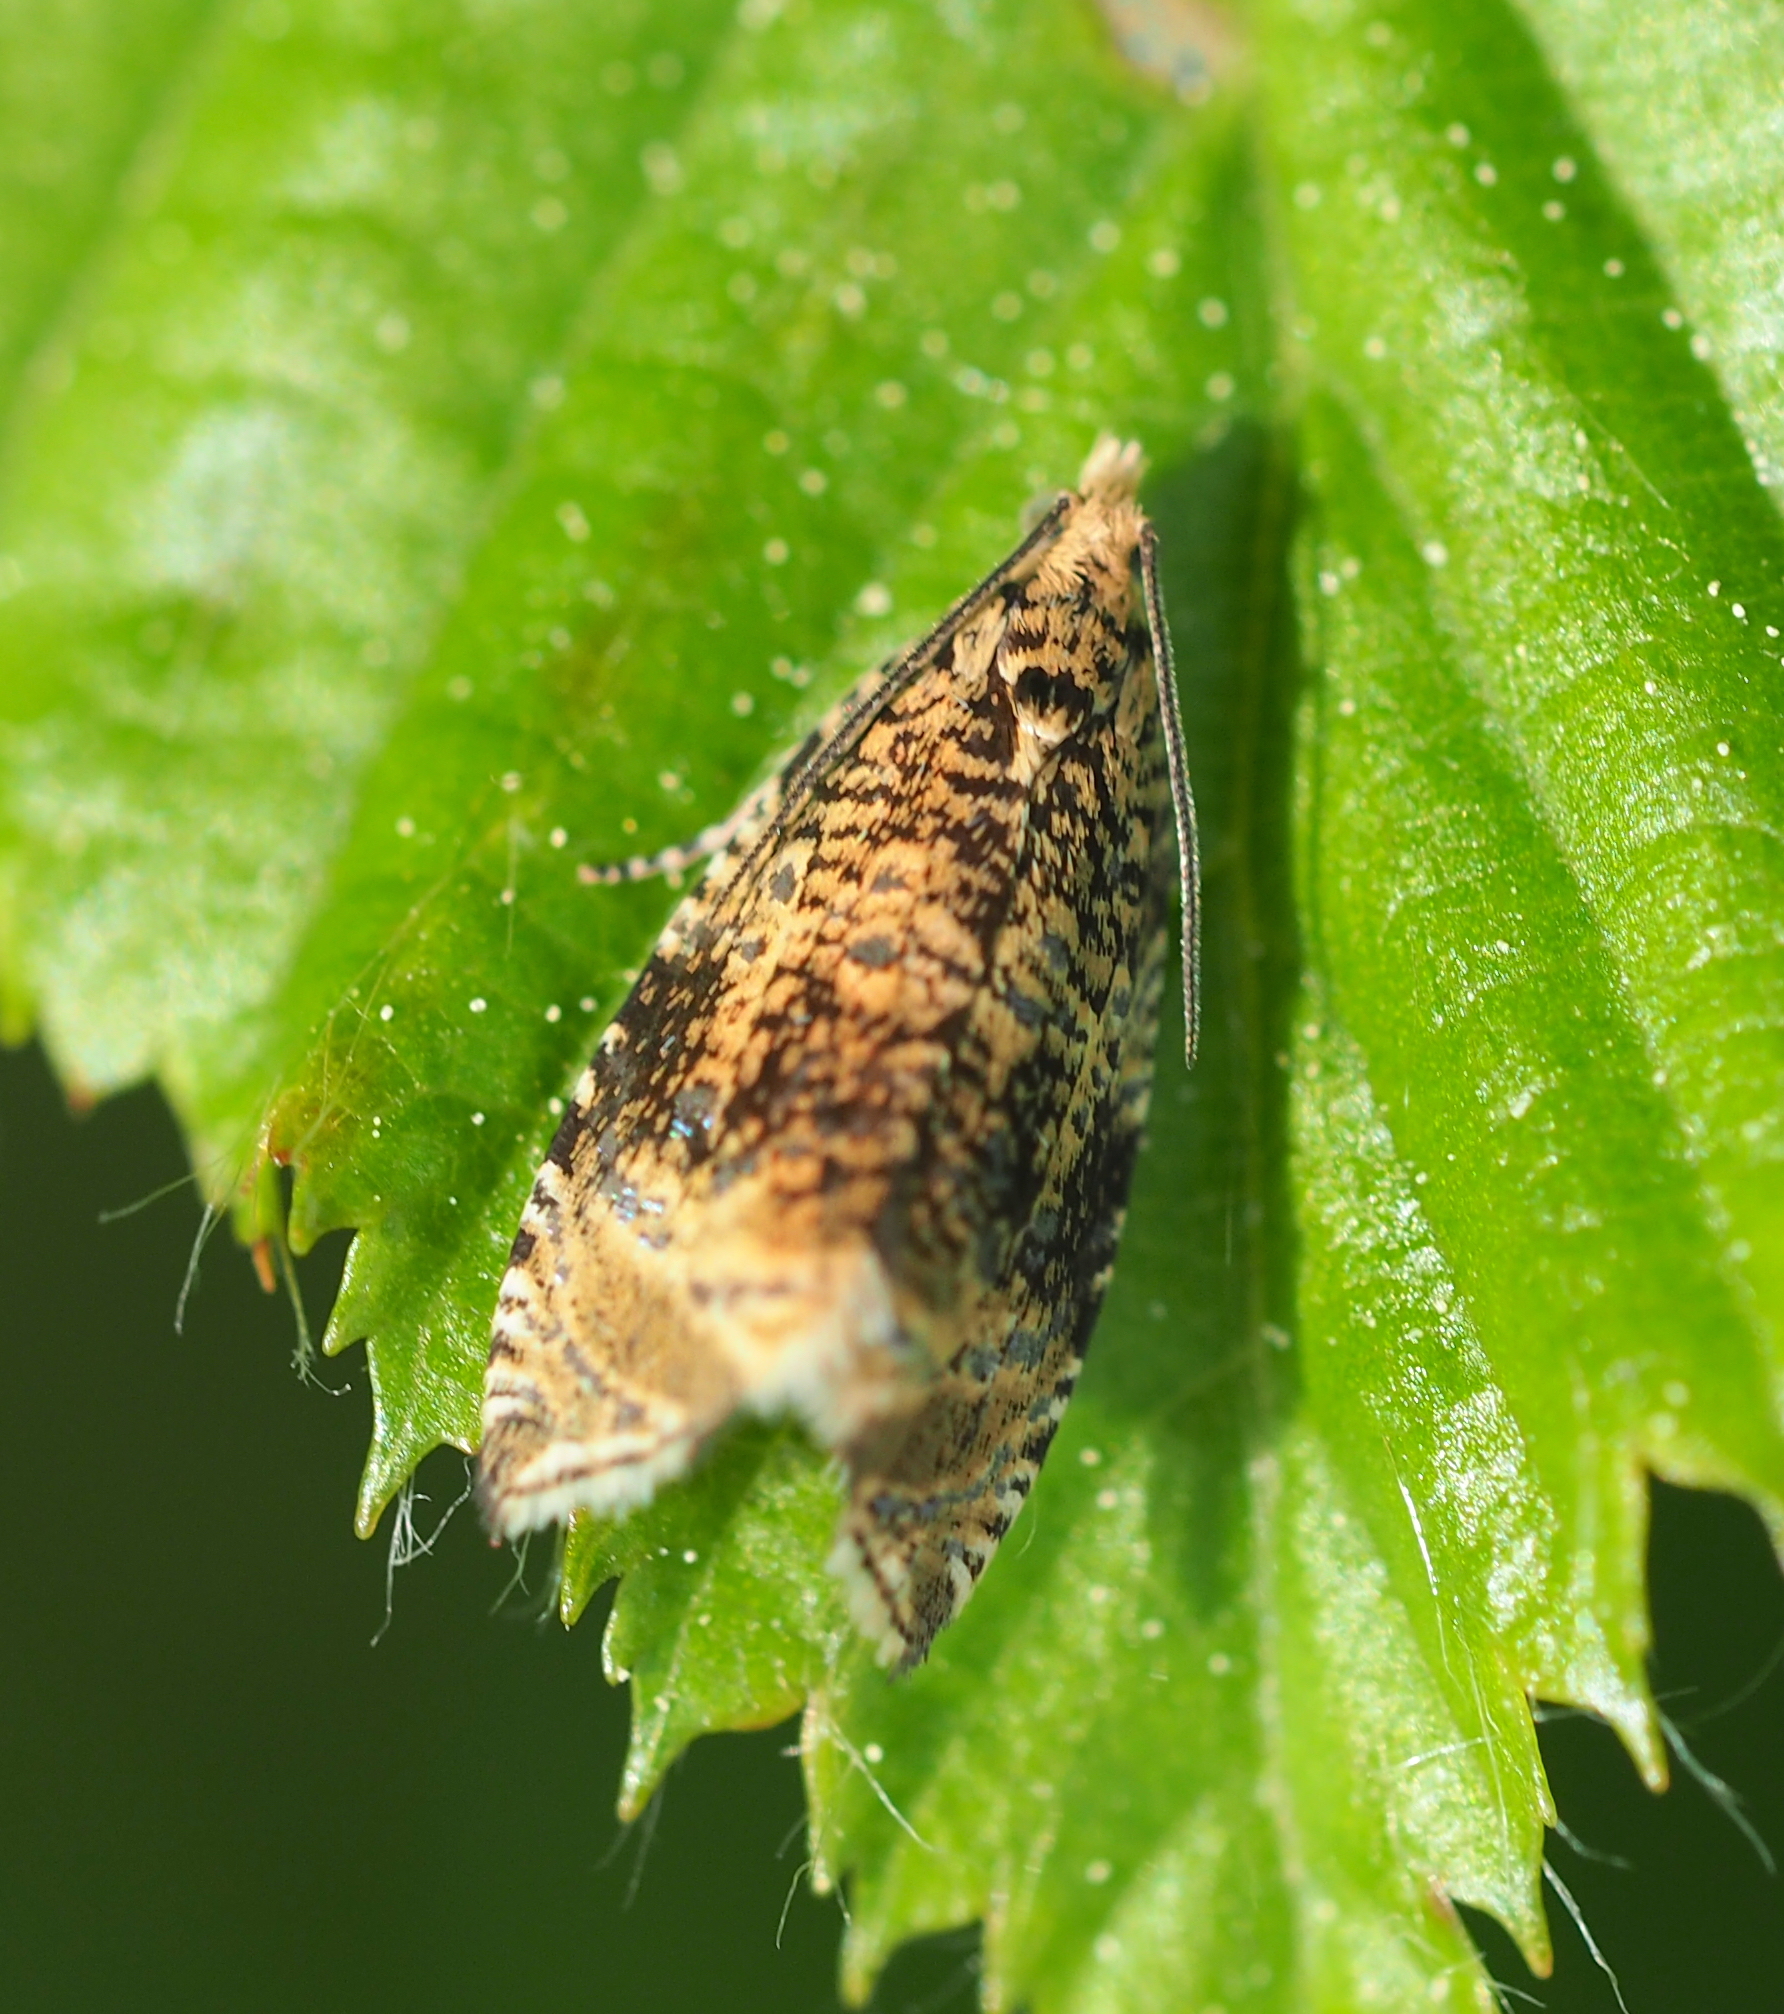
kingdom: Animalia
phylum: Arthropoda
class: Insecta
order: Lepidoptera
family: Tortricidae
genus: Syricoris
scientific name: Syricoris lacunana
